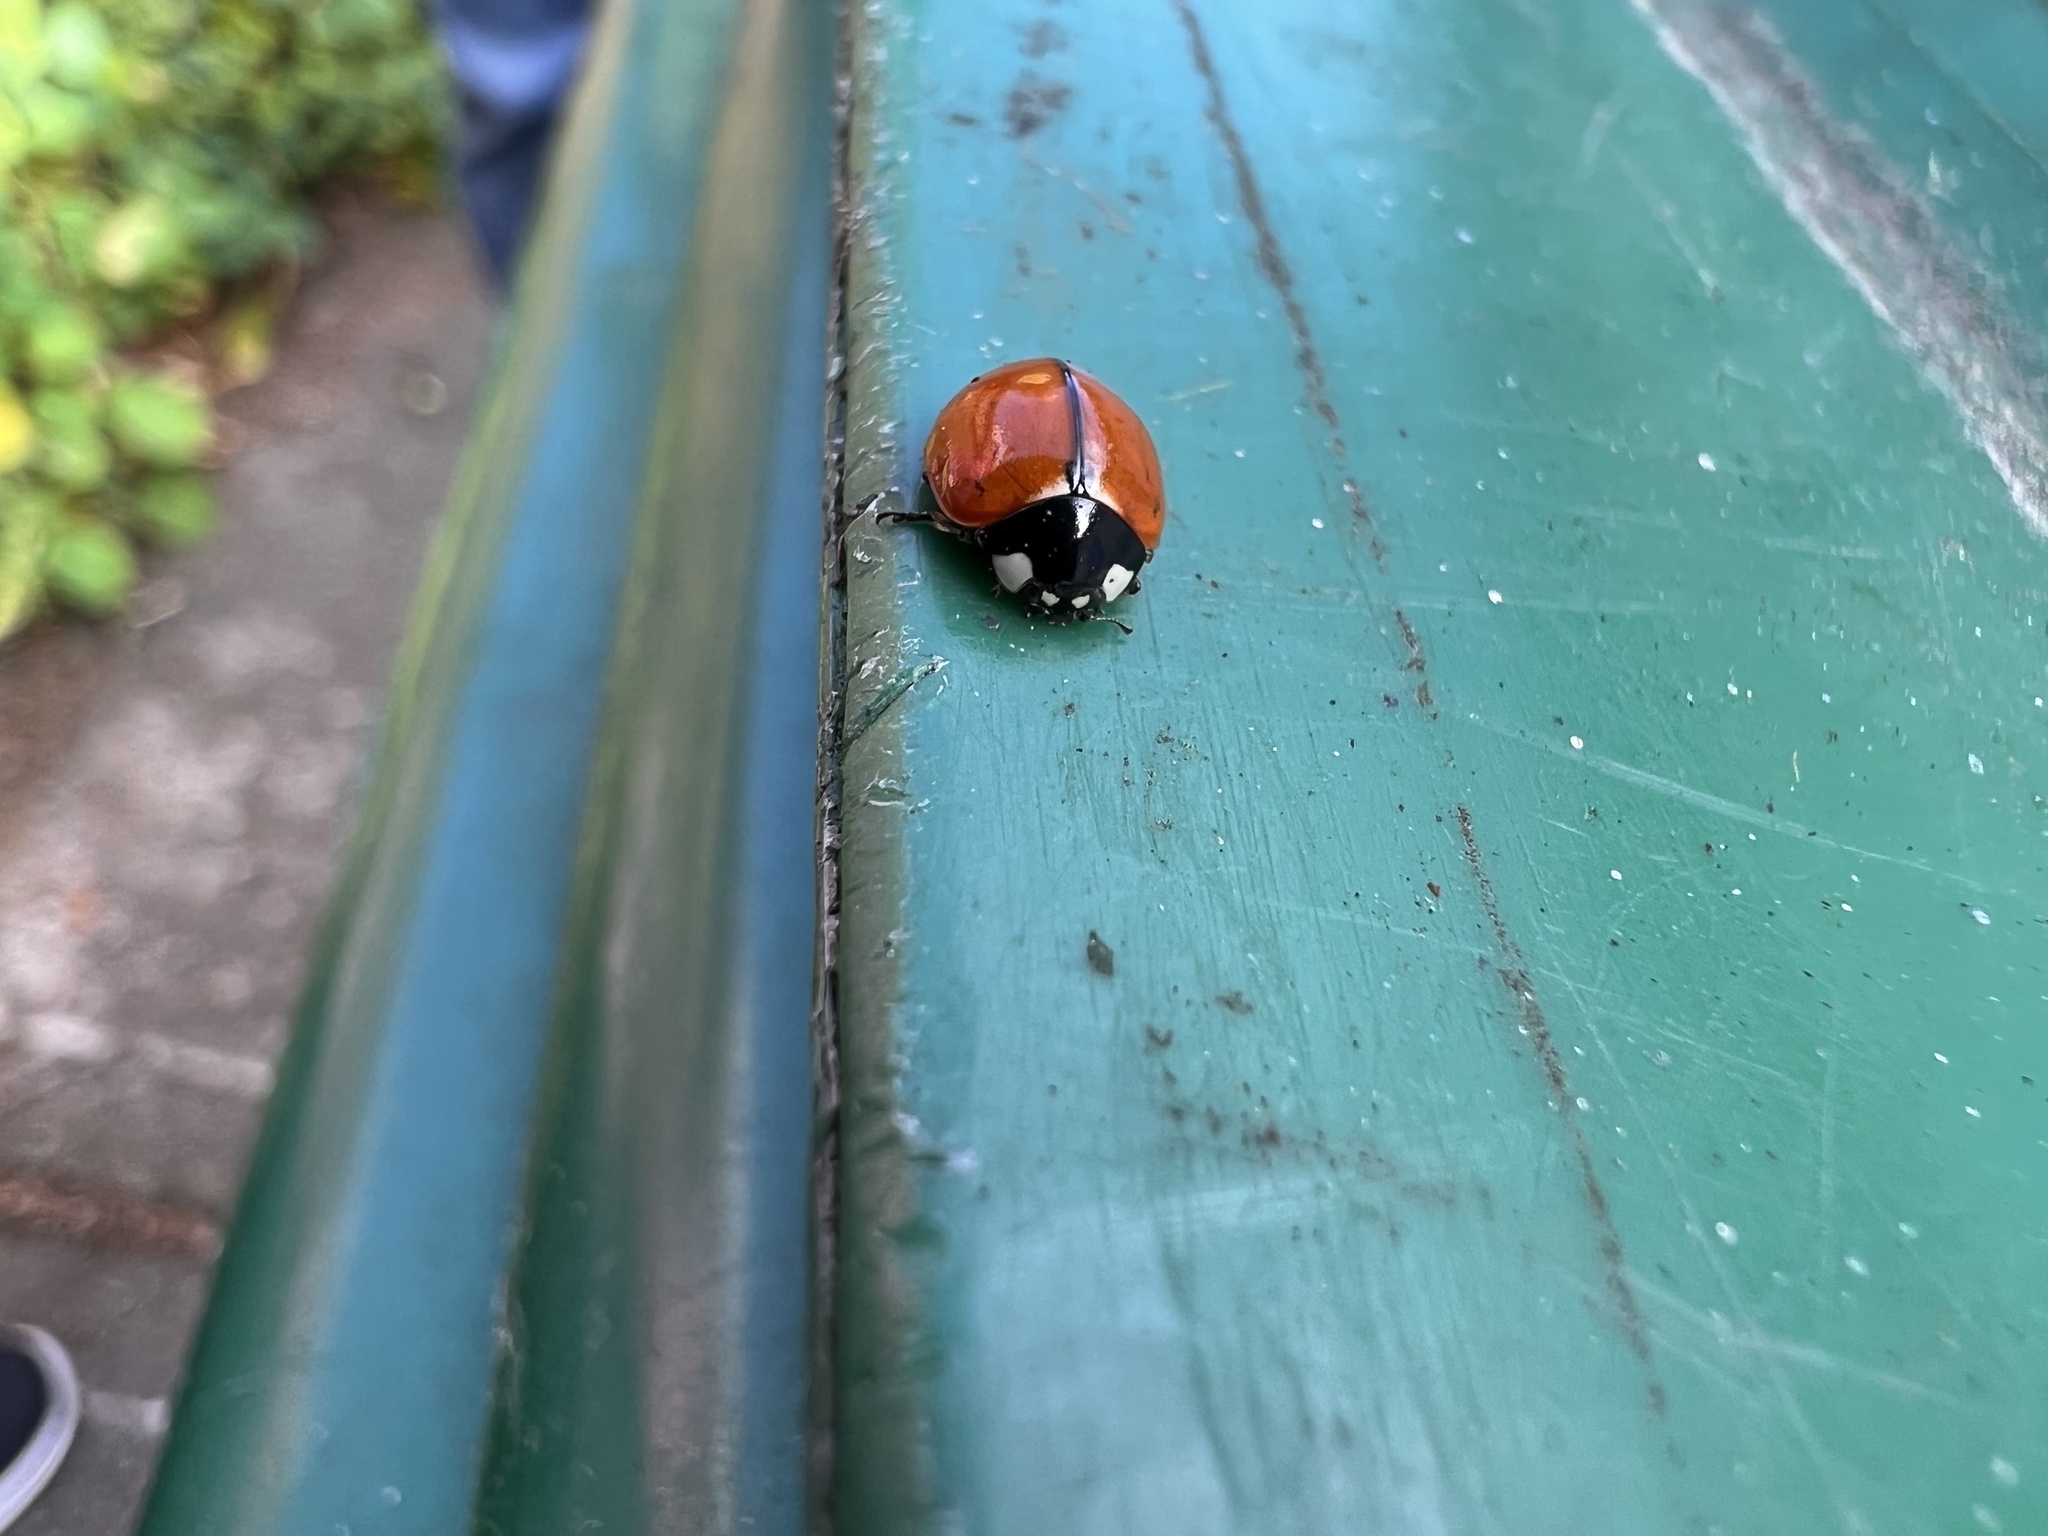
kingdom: Animalia
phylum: Arthropoda
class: Insecta
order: Coleoptera
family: Coccinellidae
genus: Coccinella
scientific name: Coccinella californica
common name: Lady beetle
